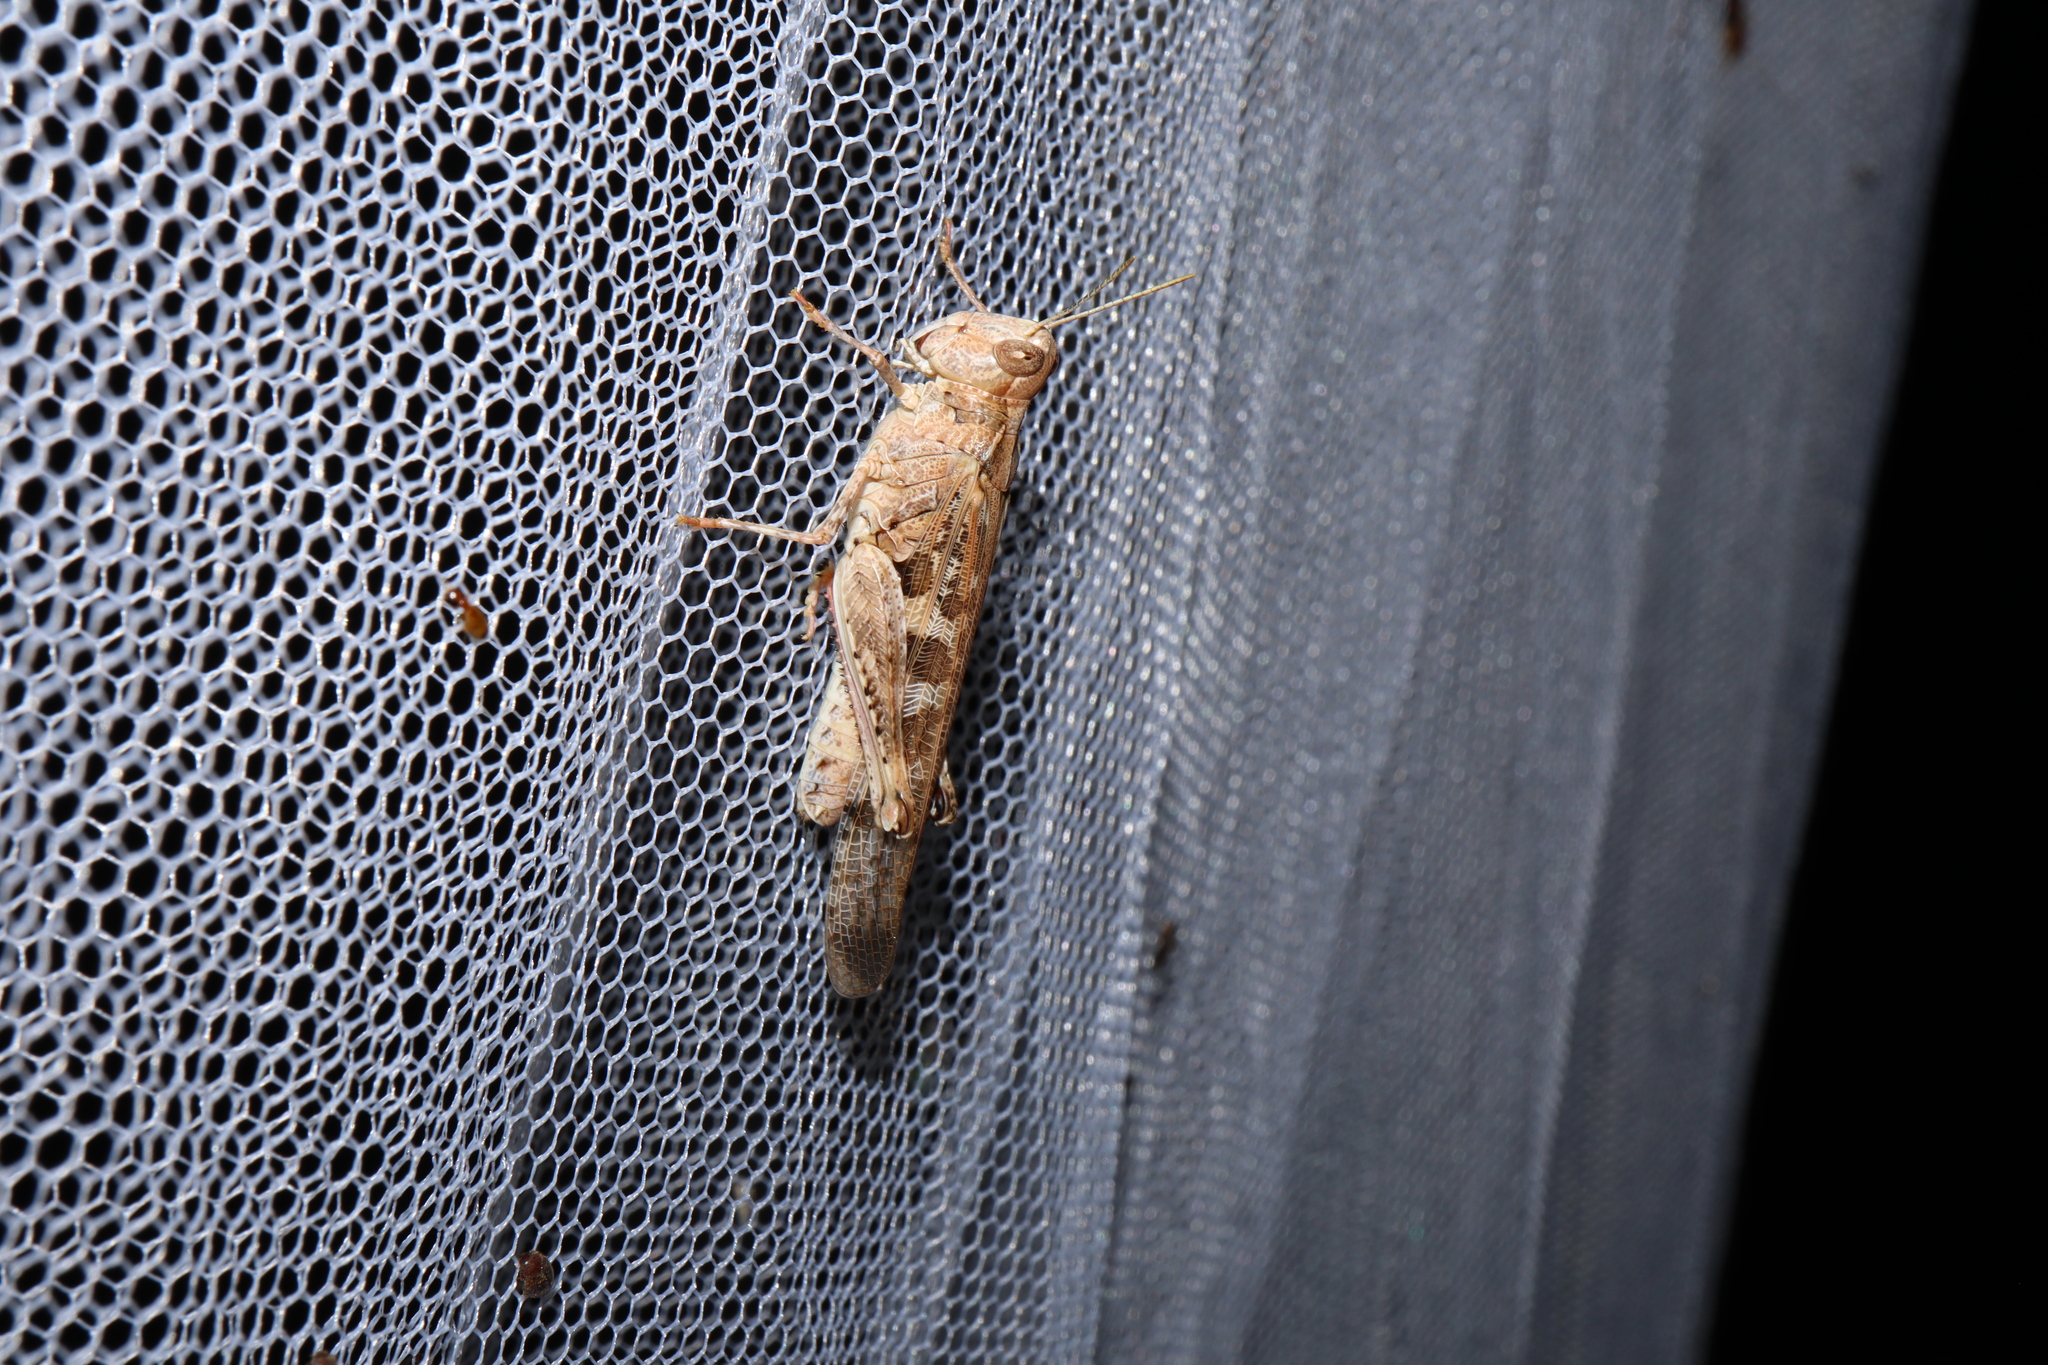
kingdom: Animalia
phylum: Arthropoda
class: Insecta
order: Orthoptera
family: Acrididae
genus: Chortoicetes
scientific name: Chortoicetes terminifera
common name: Australian plague locust
